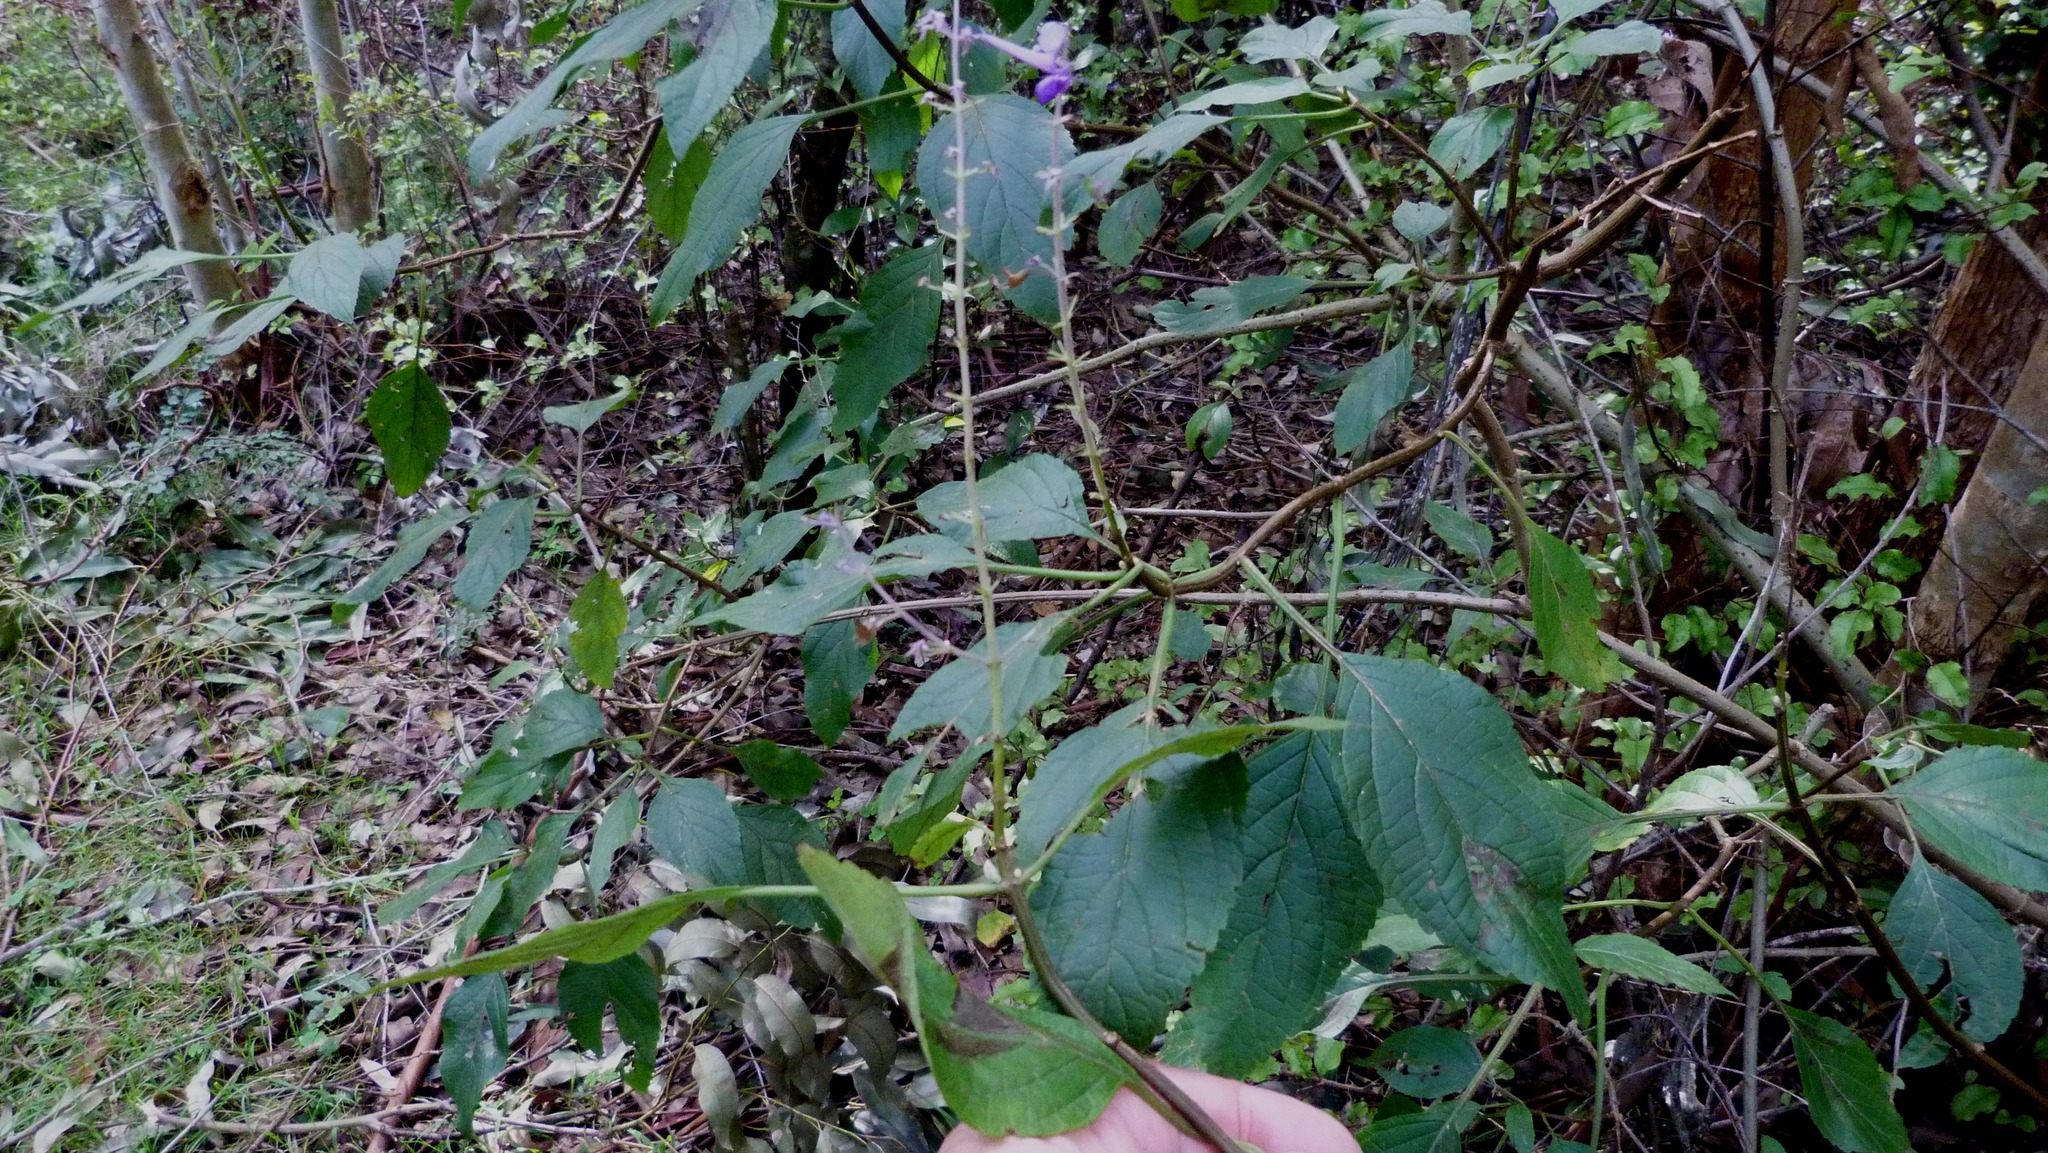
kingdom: Plantae
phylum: Tracheophyta
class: Magnoliopsida
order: Lamiales
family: Lamiaceae
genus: Plectranthus
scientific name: Plectranthus ecklonii
